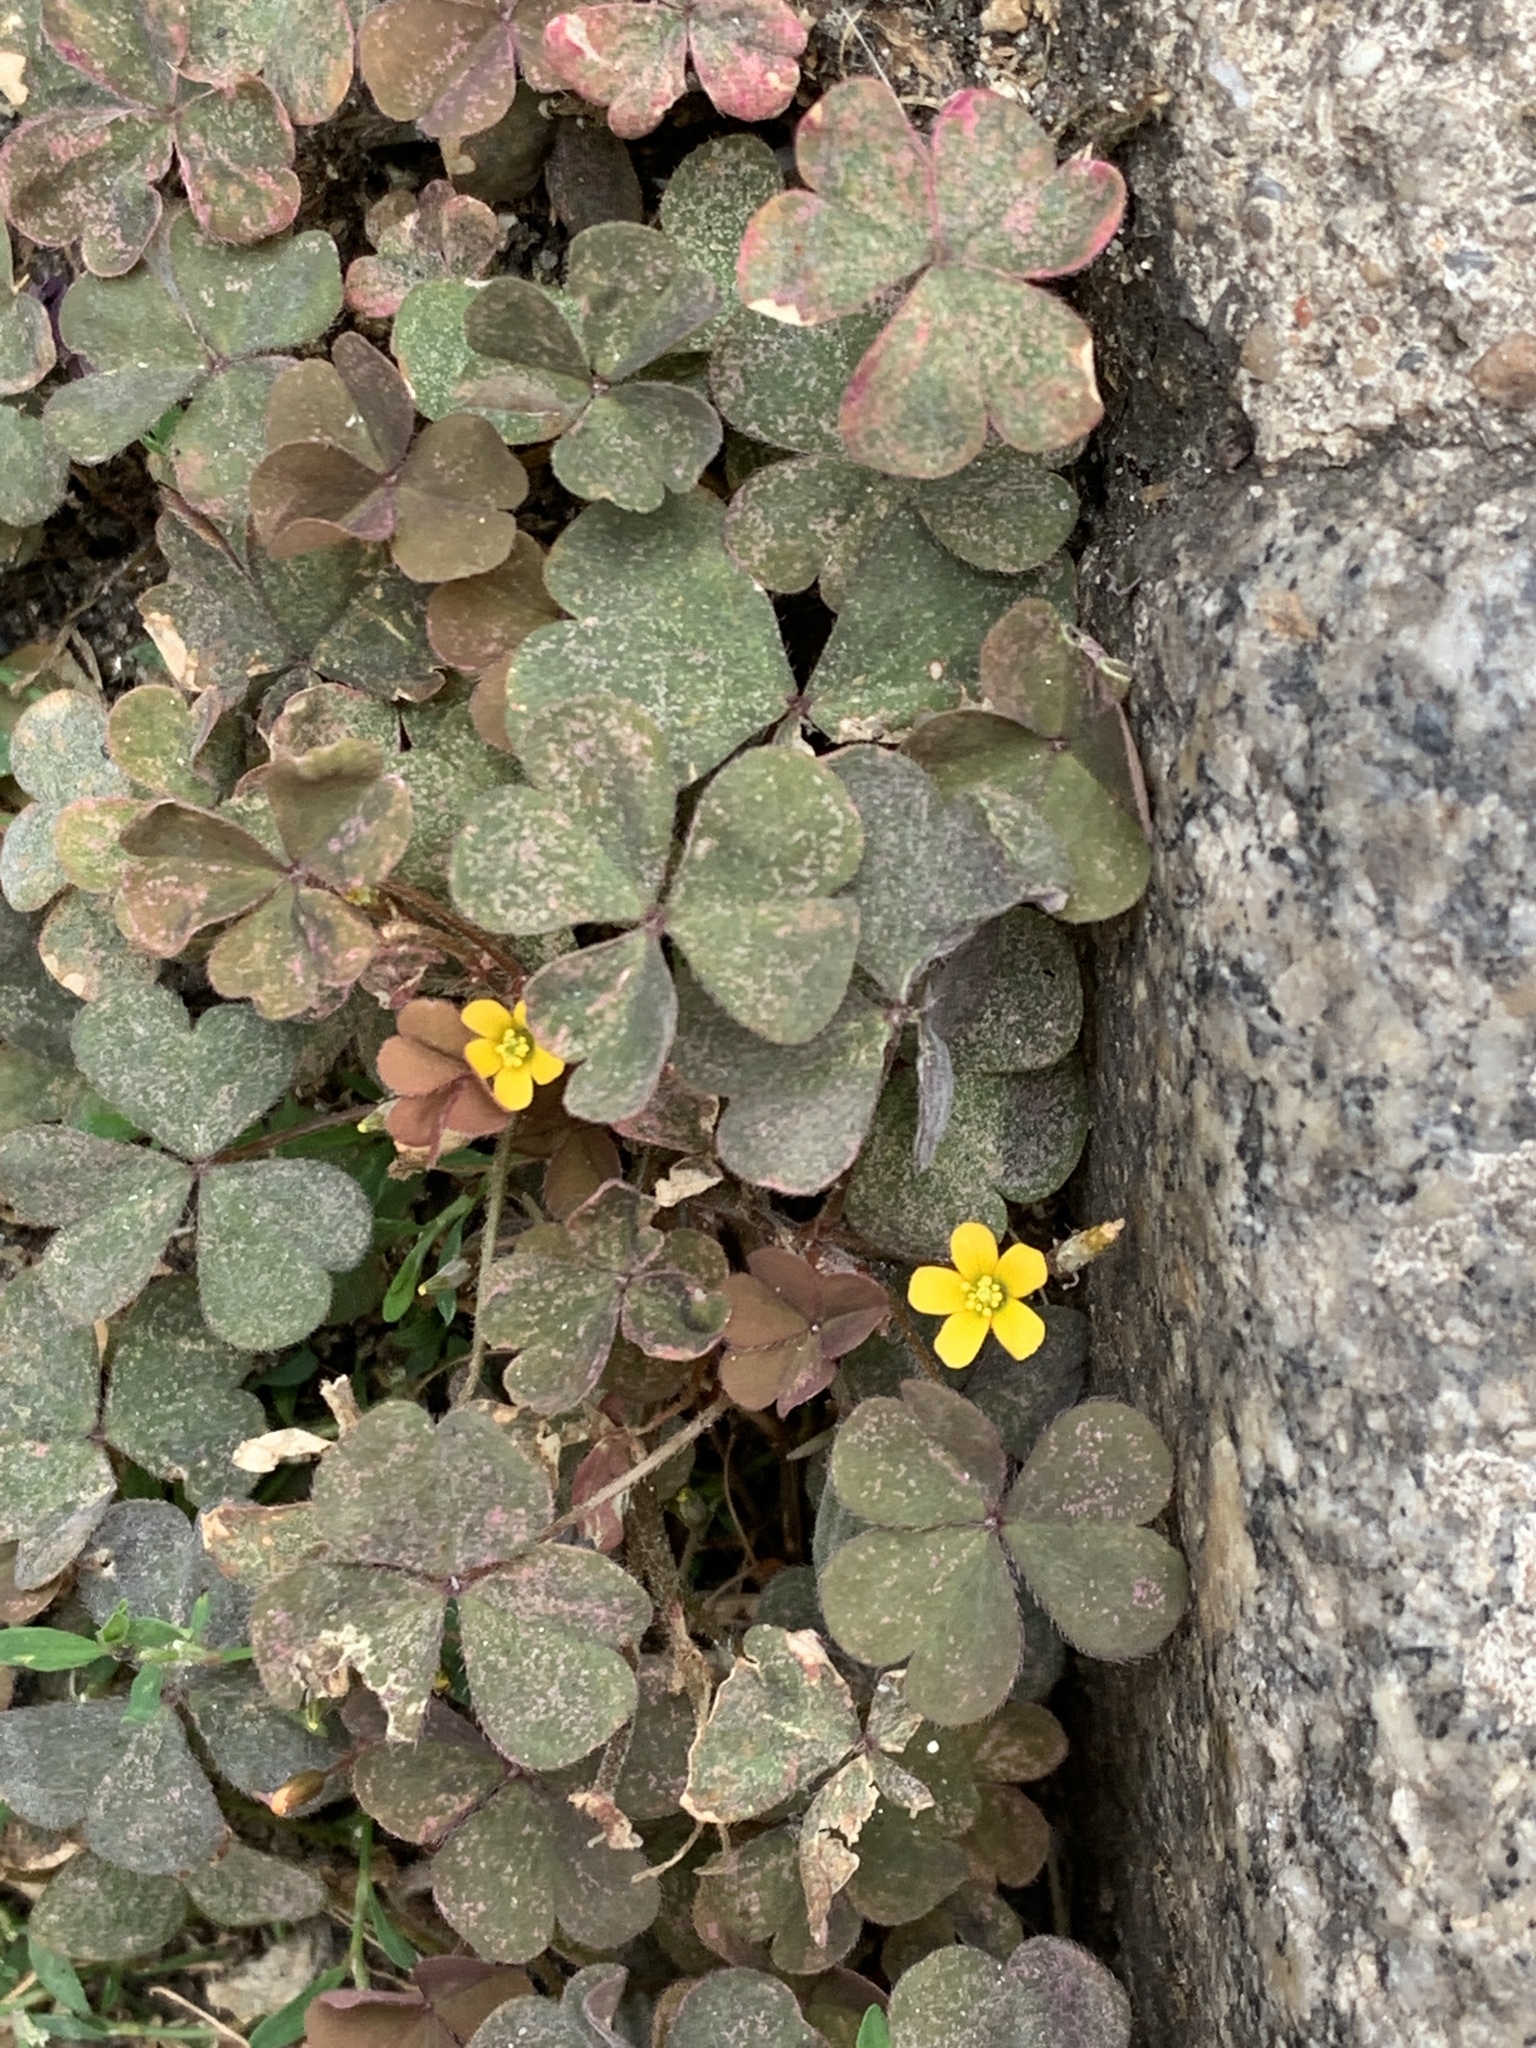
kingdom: Plantae
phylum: Tracheophyta
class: Magnoliopsida
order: Oxalidales
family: Oxalidaceae
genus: Oxalis
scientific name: Oxalis corniculata
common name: Procumbent yellow-sorrel
